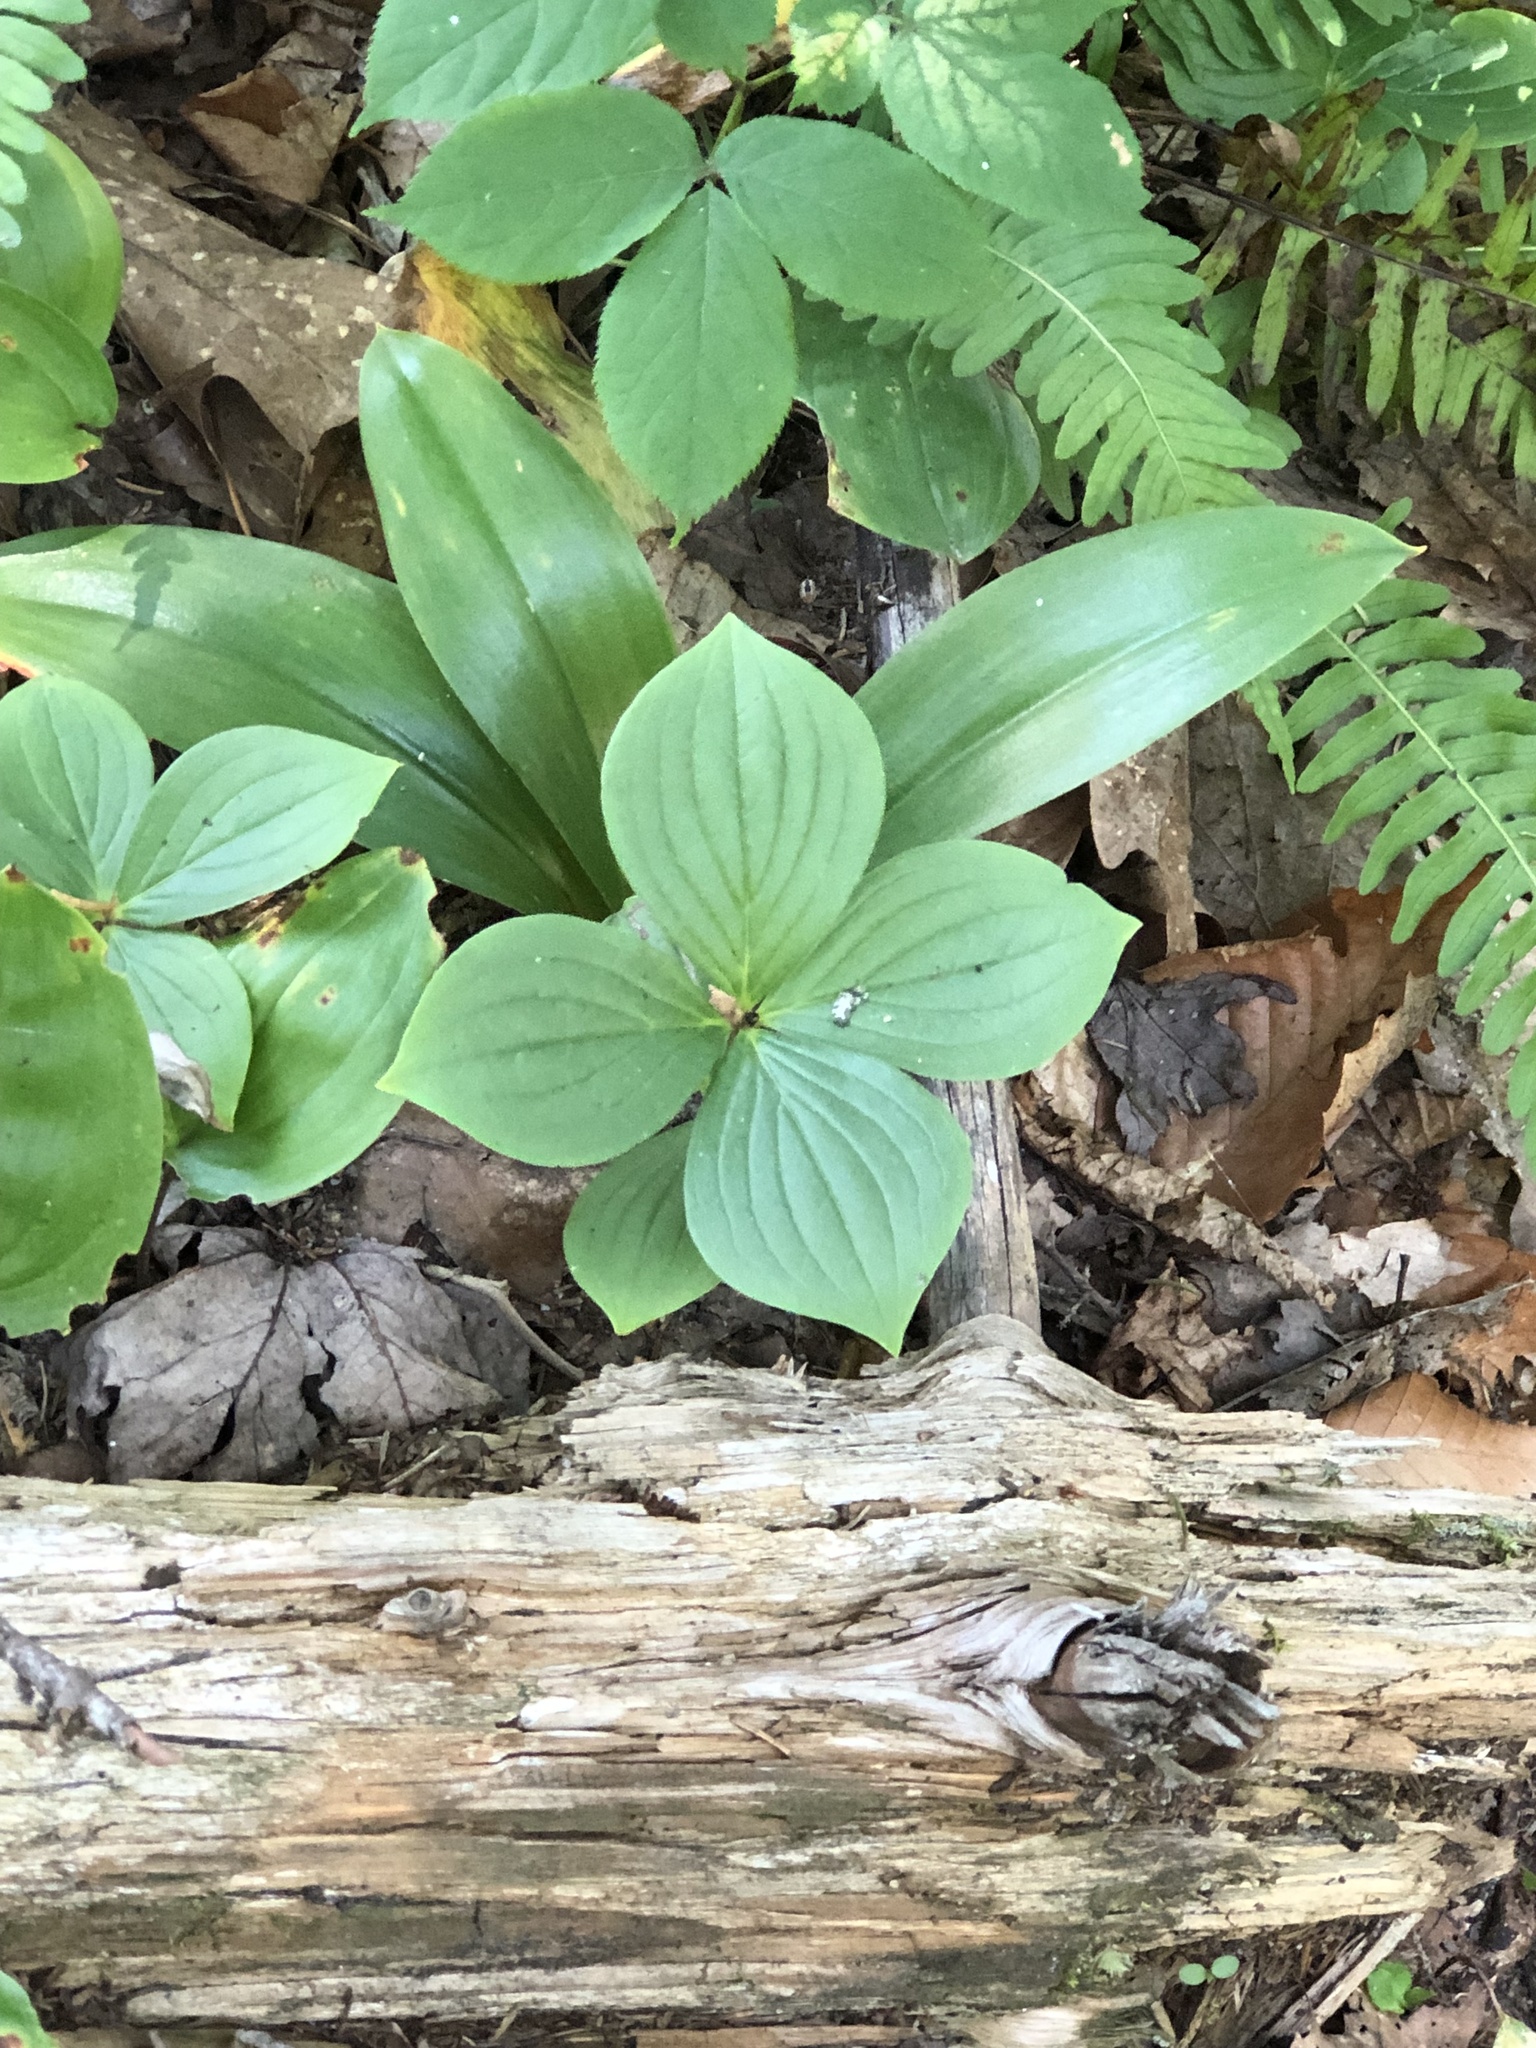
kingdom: Plantae
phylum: Tracheophyta
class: Magnoliopsida
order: Cornales
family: Cornaceae
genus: Cornus
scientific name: Cornus canadensis
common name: Creeping dogwood
